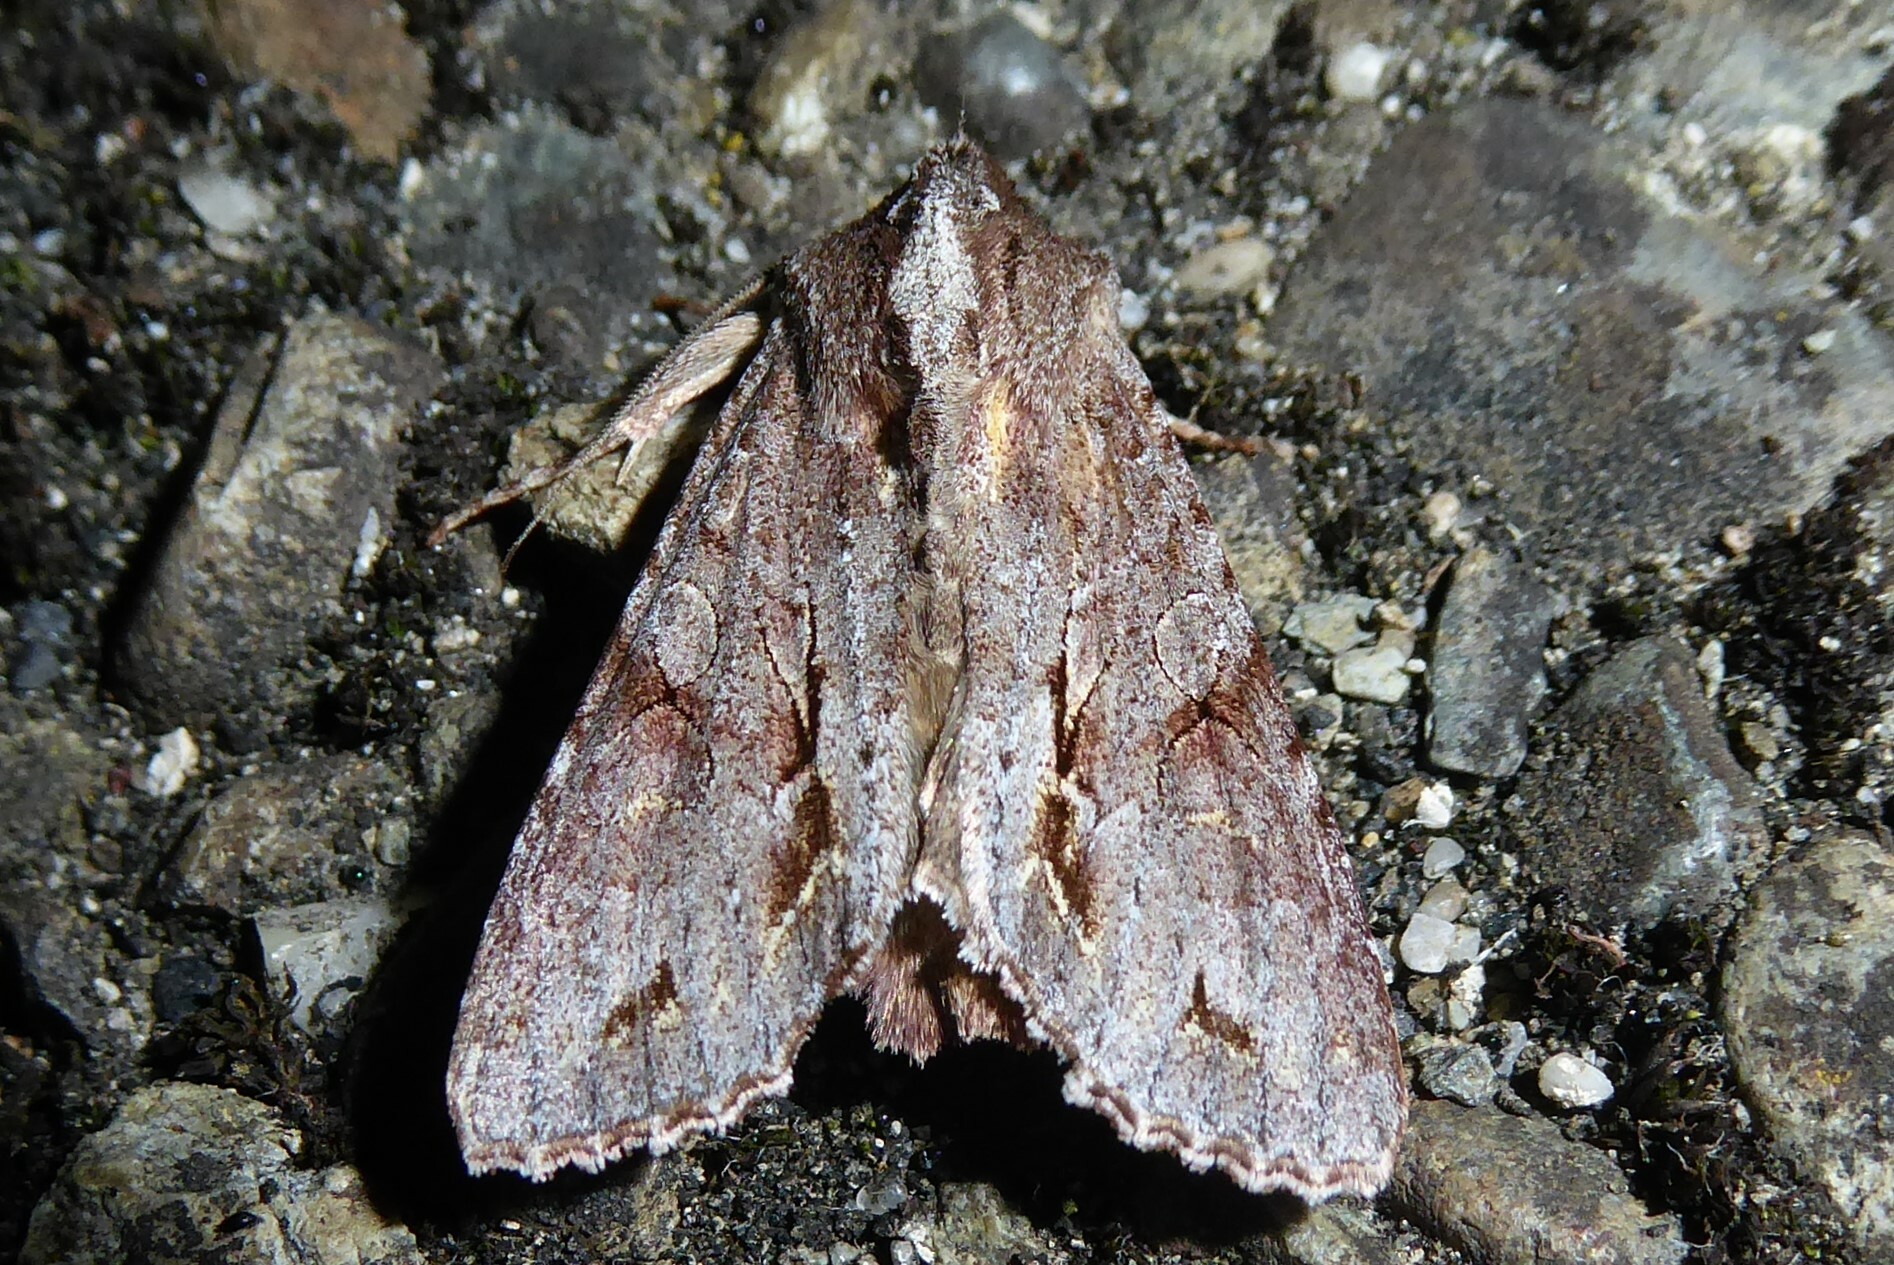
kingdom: Animalia
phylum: Arthropoda
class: Insecta
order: Lepidoptera
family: Noctuidae
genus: Ichneutica
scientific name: Ichneutica
